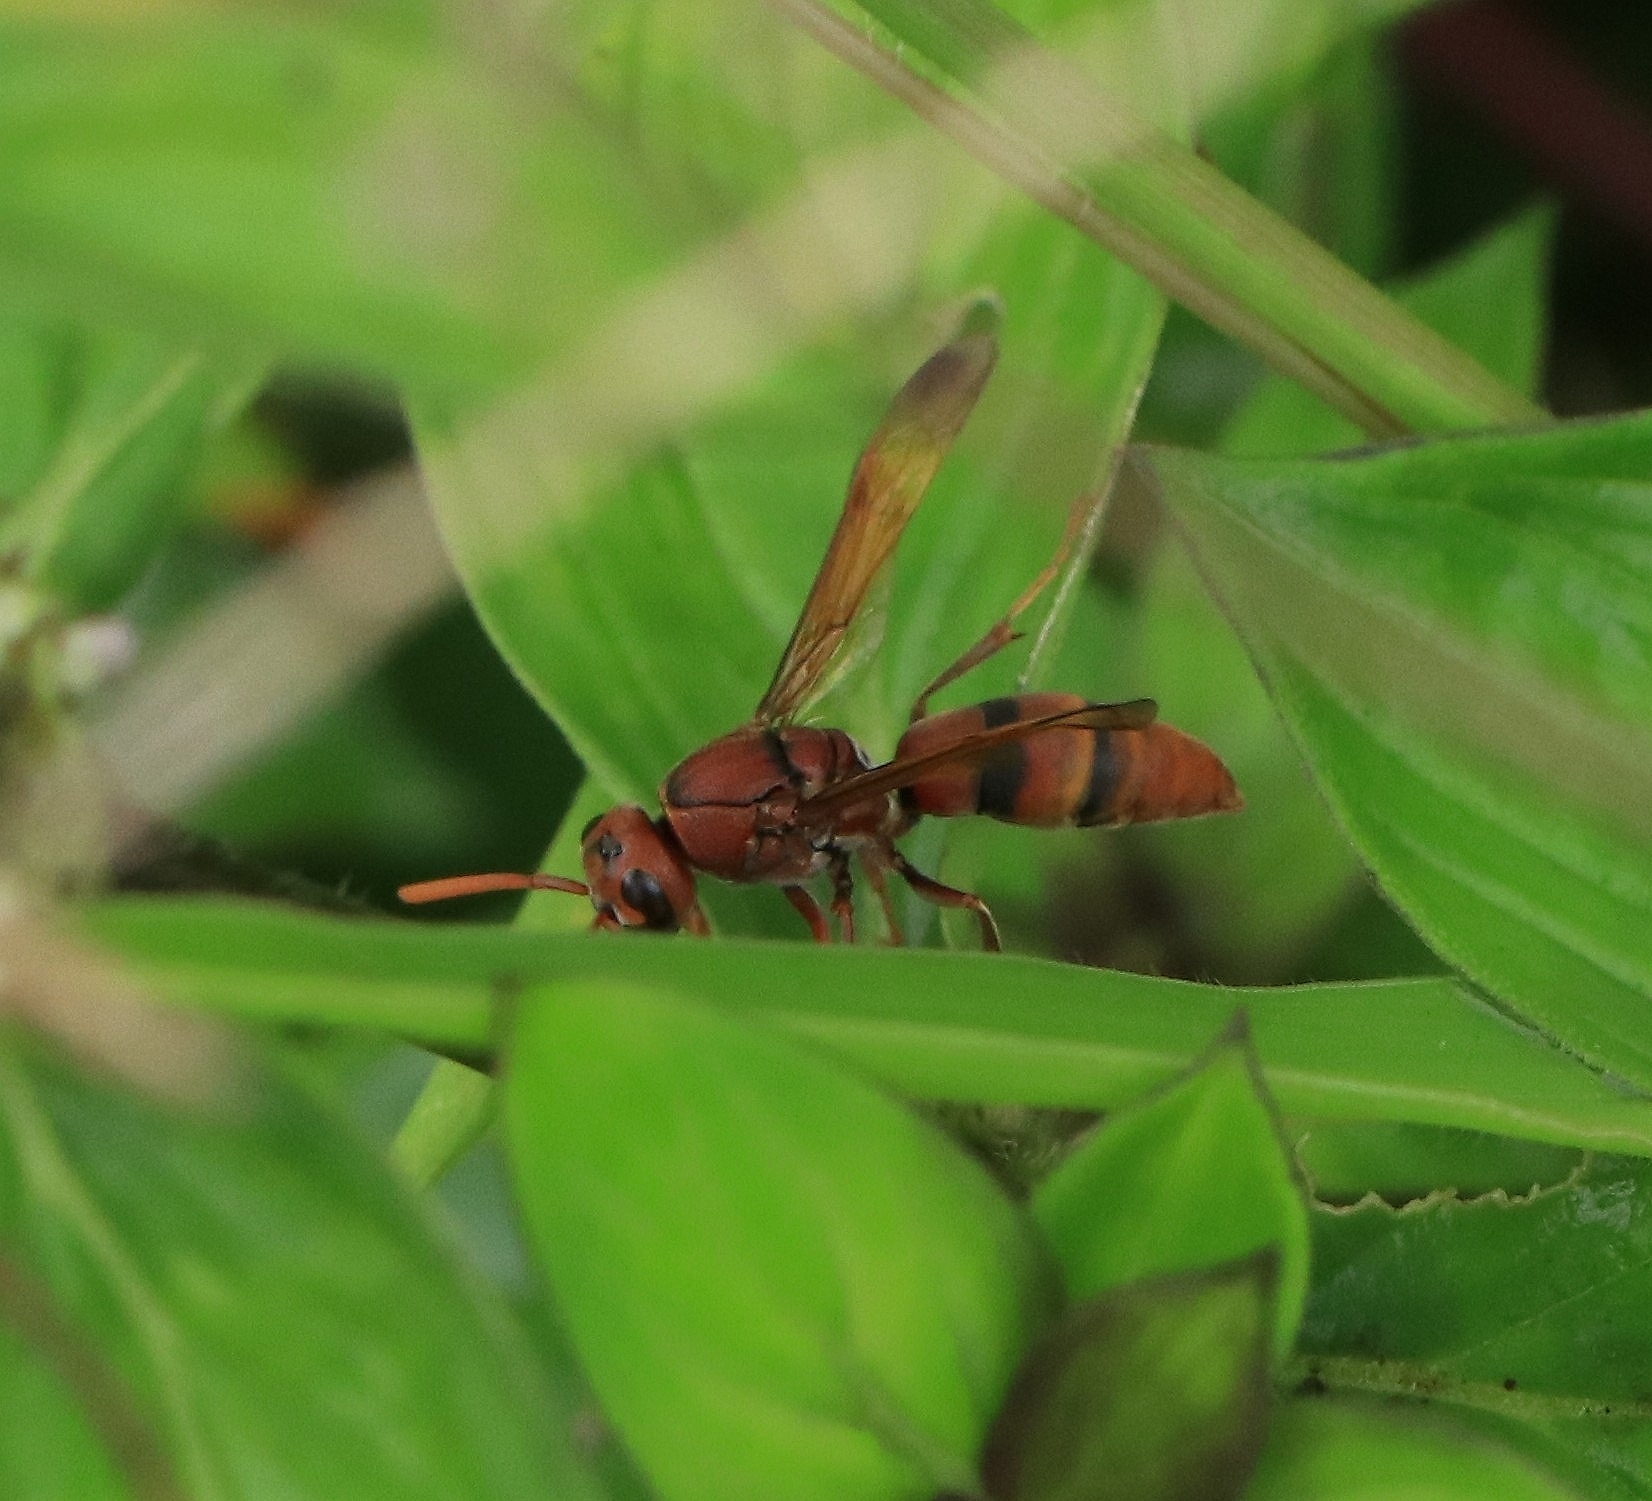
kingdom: Animalia
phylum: Arthropoda
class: Insecta
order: Hymenoptera
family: Eumenidae
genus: Antodynerus
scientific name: Antodynerus limbatus
